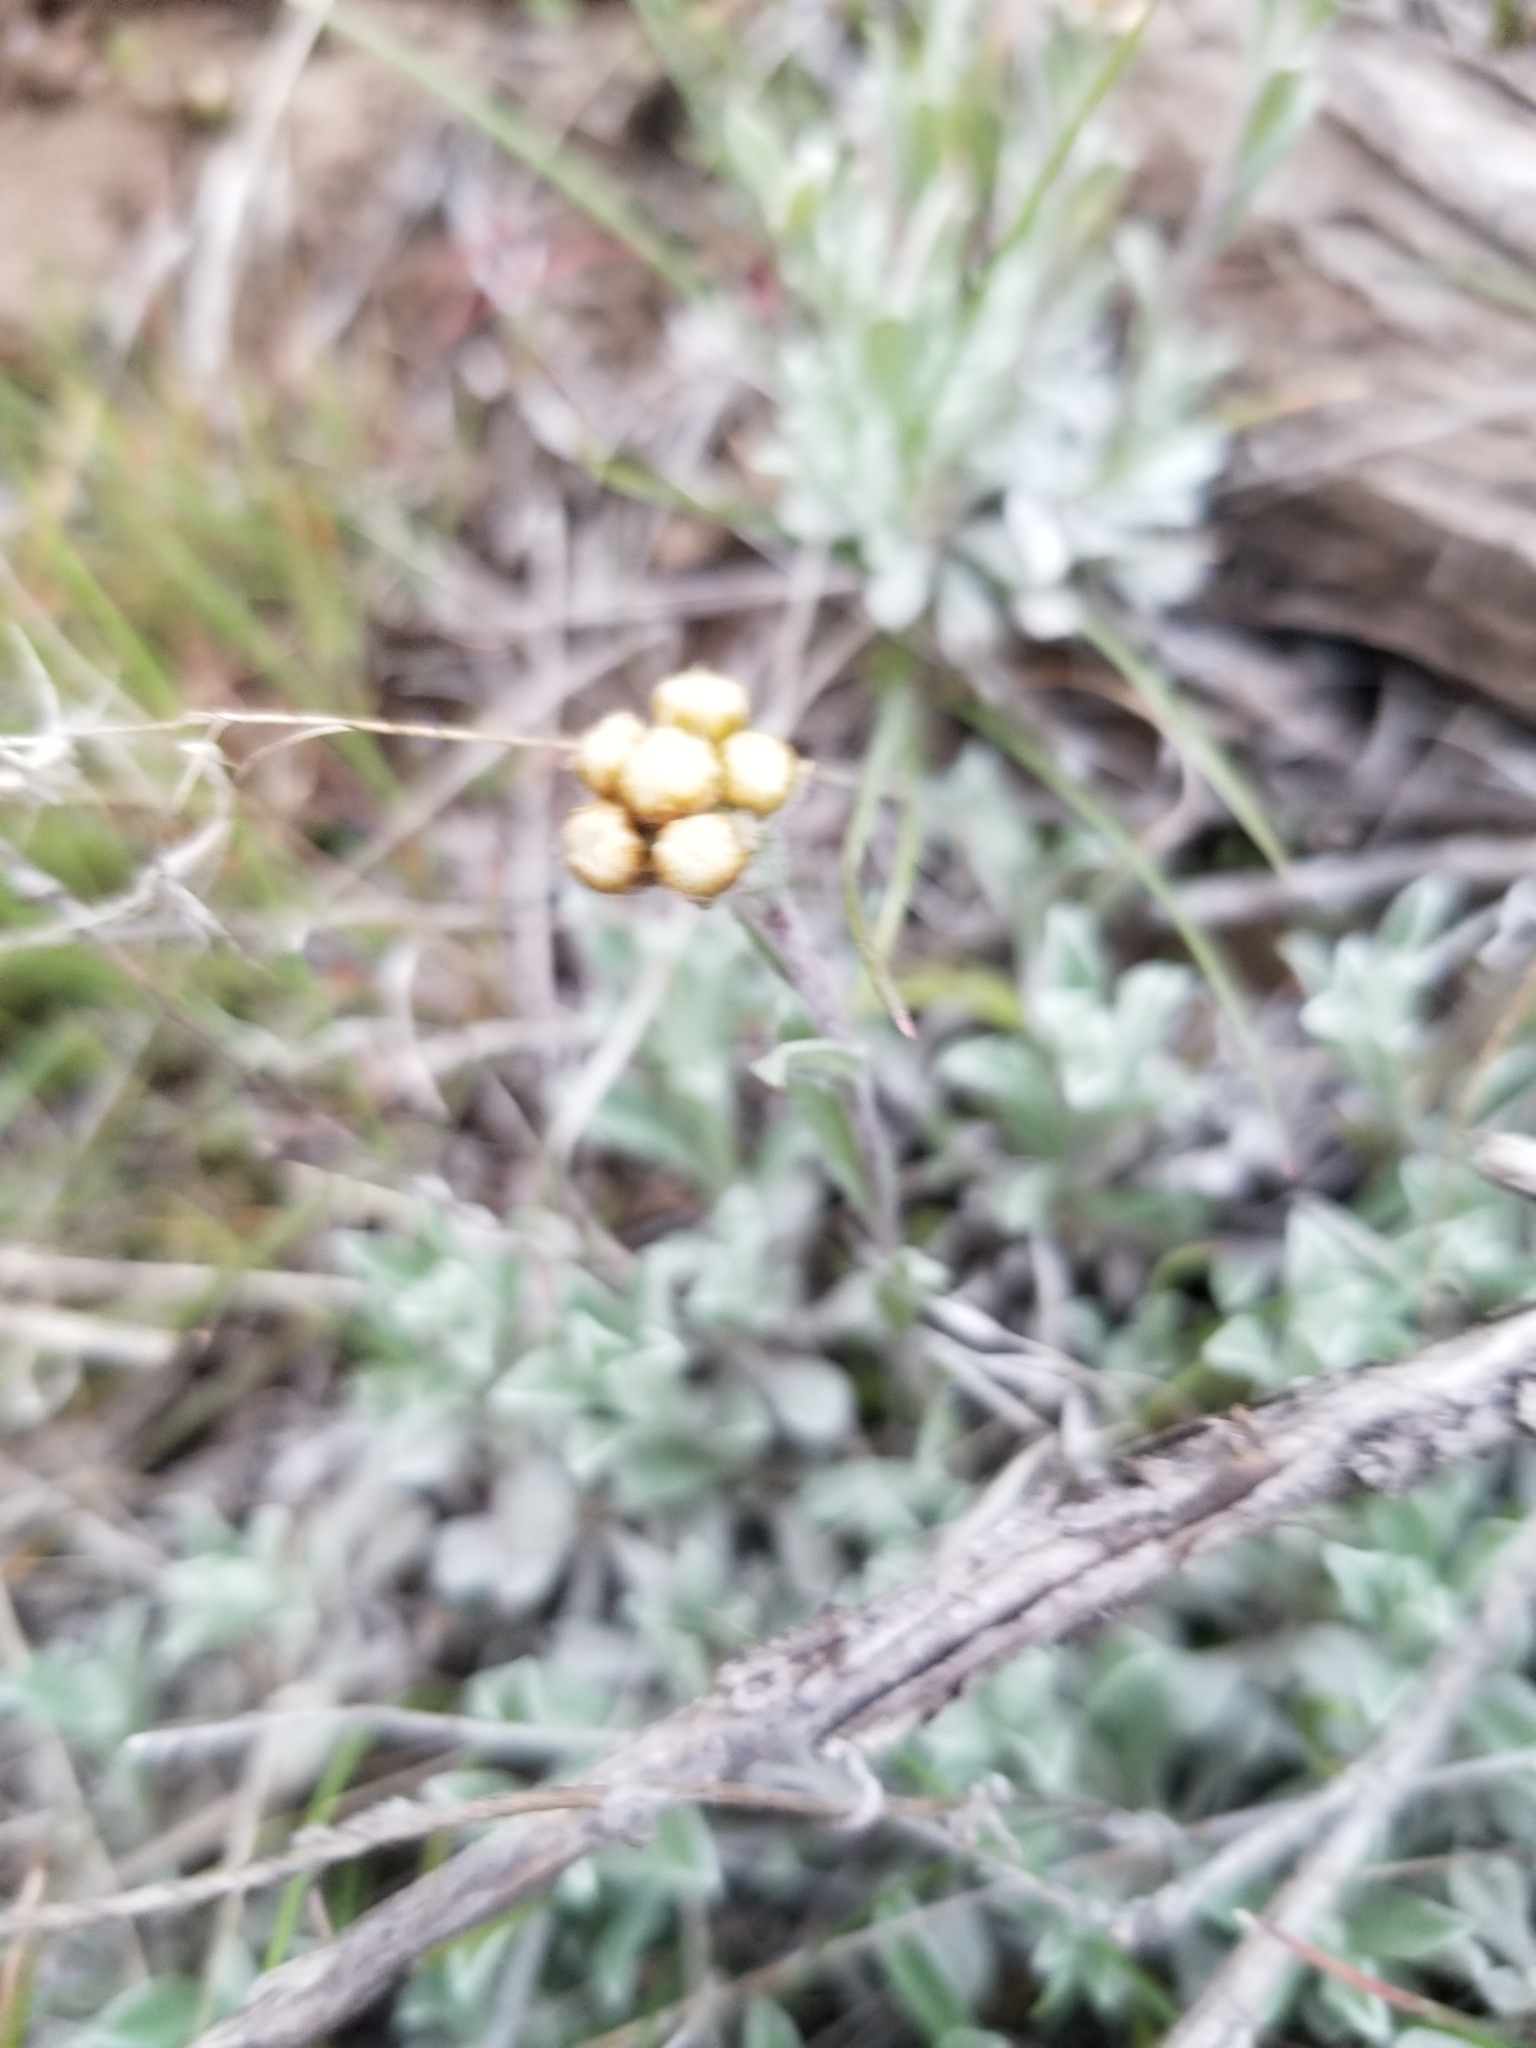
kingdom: Plantae
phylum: Tracheophyta
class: Magnoliopsida
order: Asterales
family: Asteraceae
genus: Antennaria
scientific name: Antennaria umbrinella
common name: Brown pussytoes
